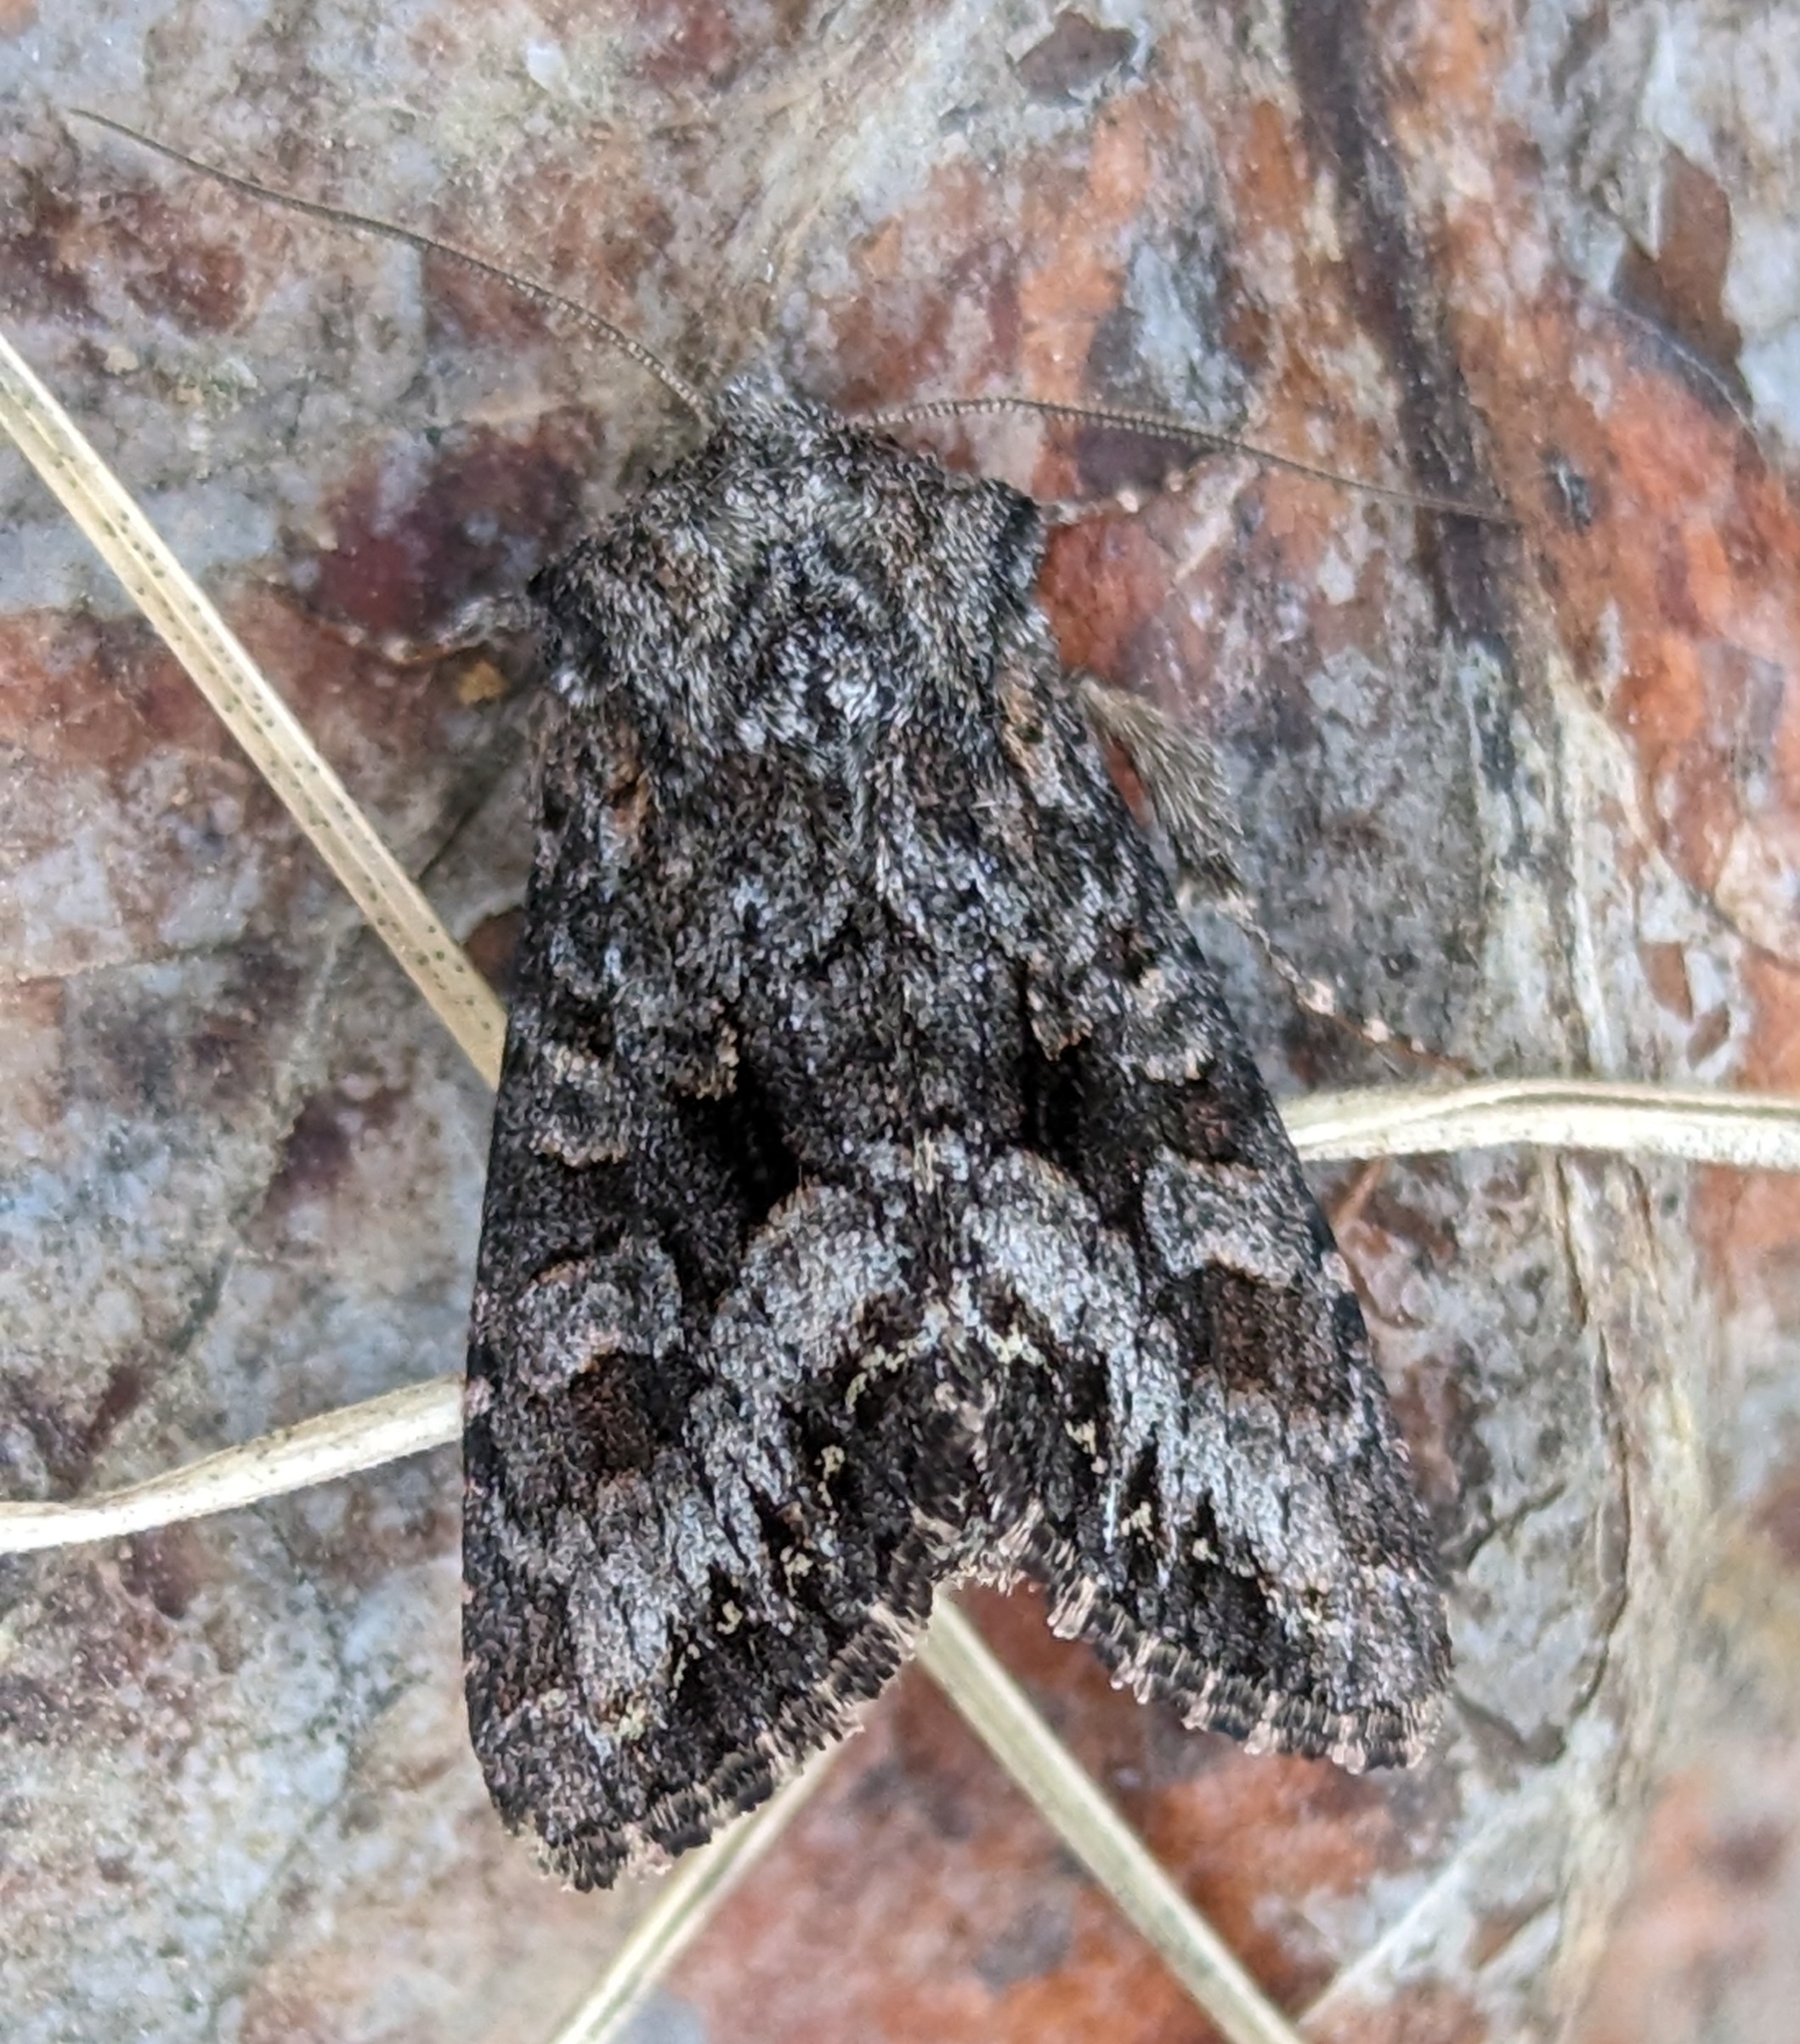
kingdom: Animalia
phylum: Arthropoda
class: Insecta
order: Lepidoptera
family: Noctuidae
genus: Papestra
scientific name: Papestra quadrata
